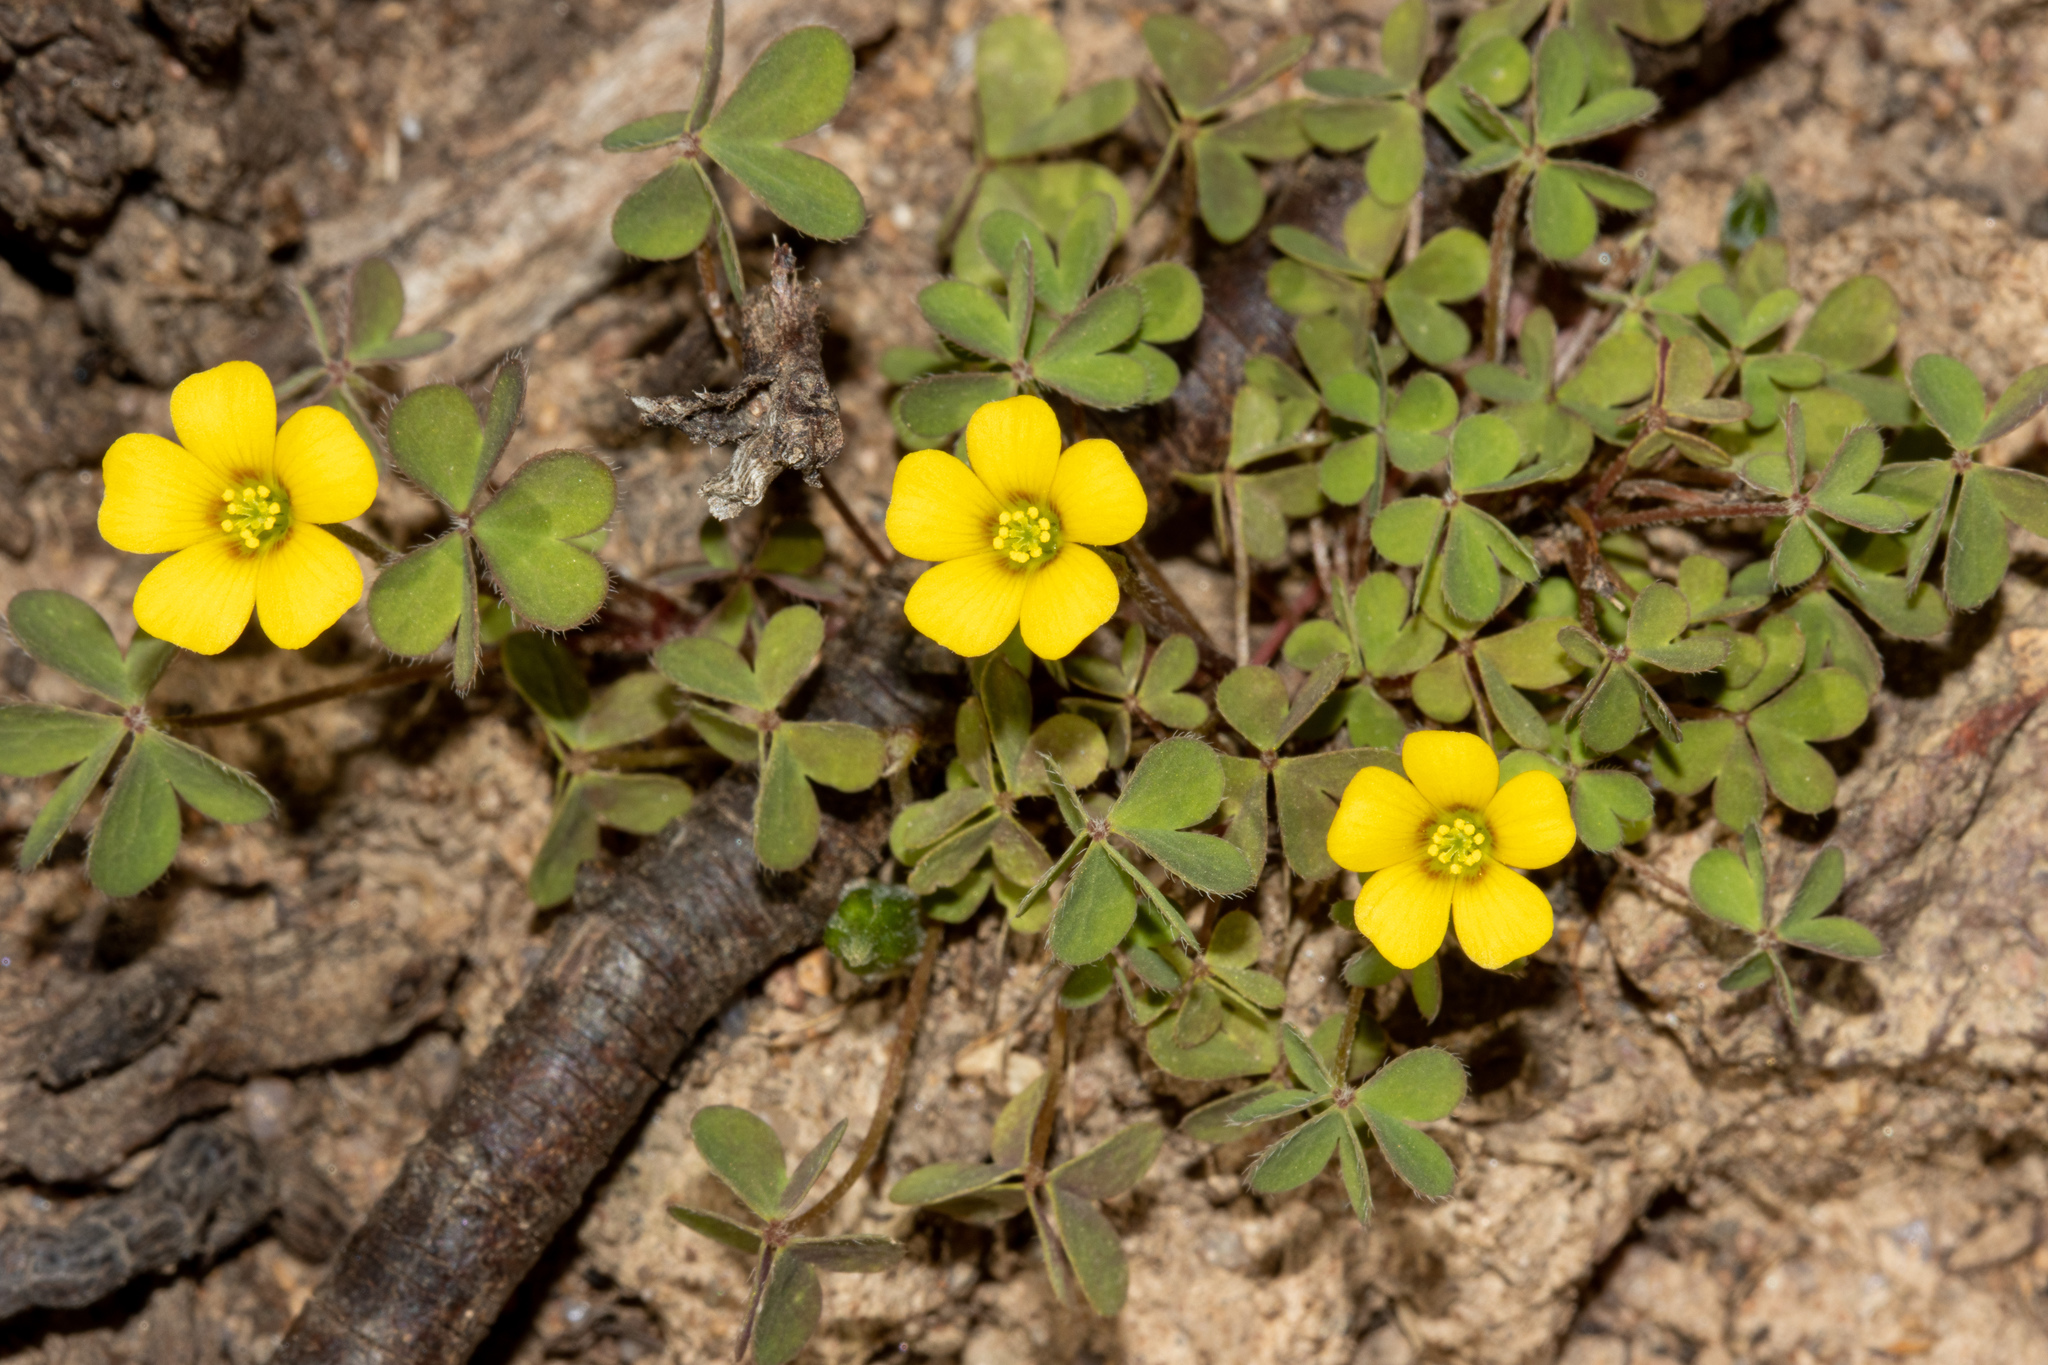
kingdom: Plantae
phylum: Tracheophyta
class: Magnoliopsida
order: Oxalidales
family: Oxalidaceae
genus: Oxalis
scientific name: Oxalis perennans
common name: Woody-rooted yellow-sorrel
